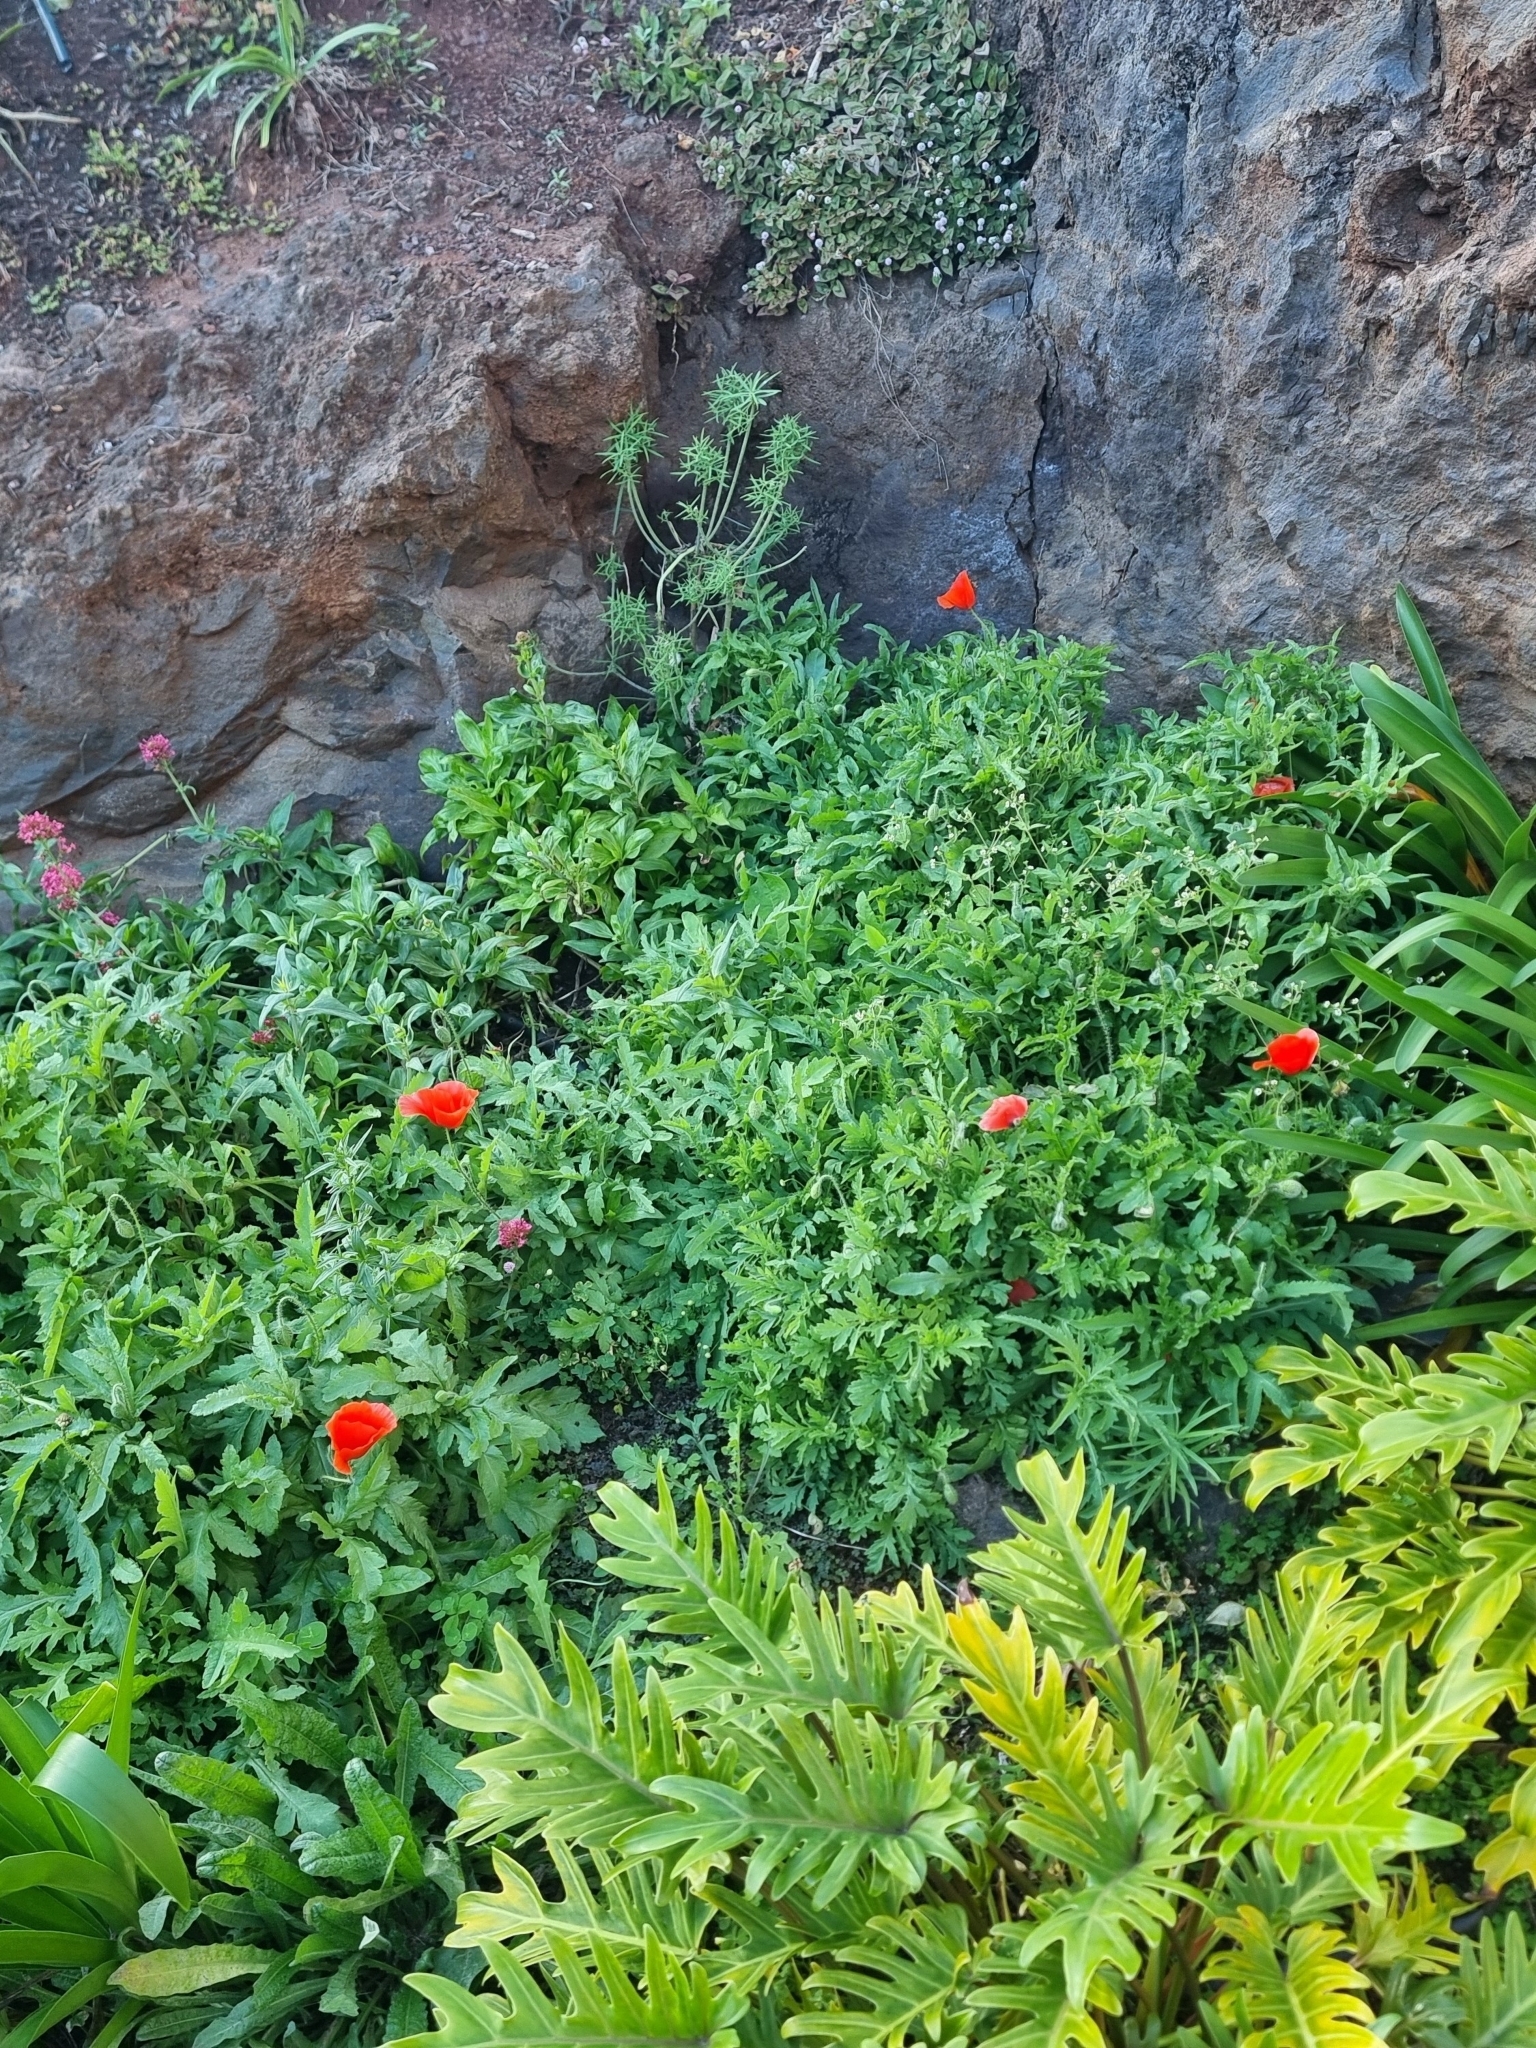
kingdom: Plantae
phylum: Tracheophyta
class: Magnoliopsida
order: Ranunculales
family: Papaveraceae
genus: Papaver
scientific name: Papaver rhoeas
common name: Corn poppy
